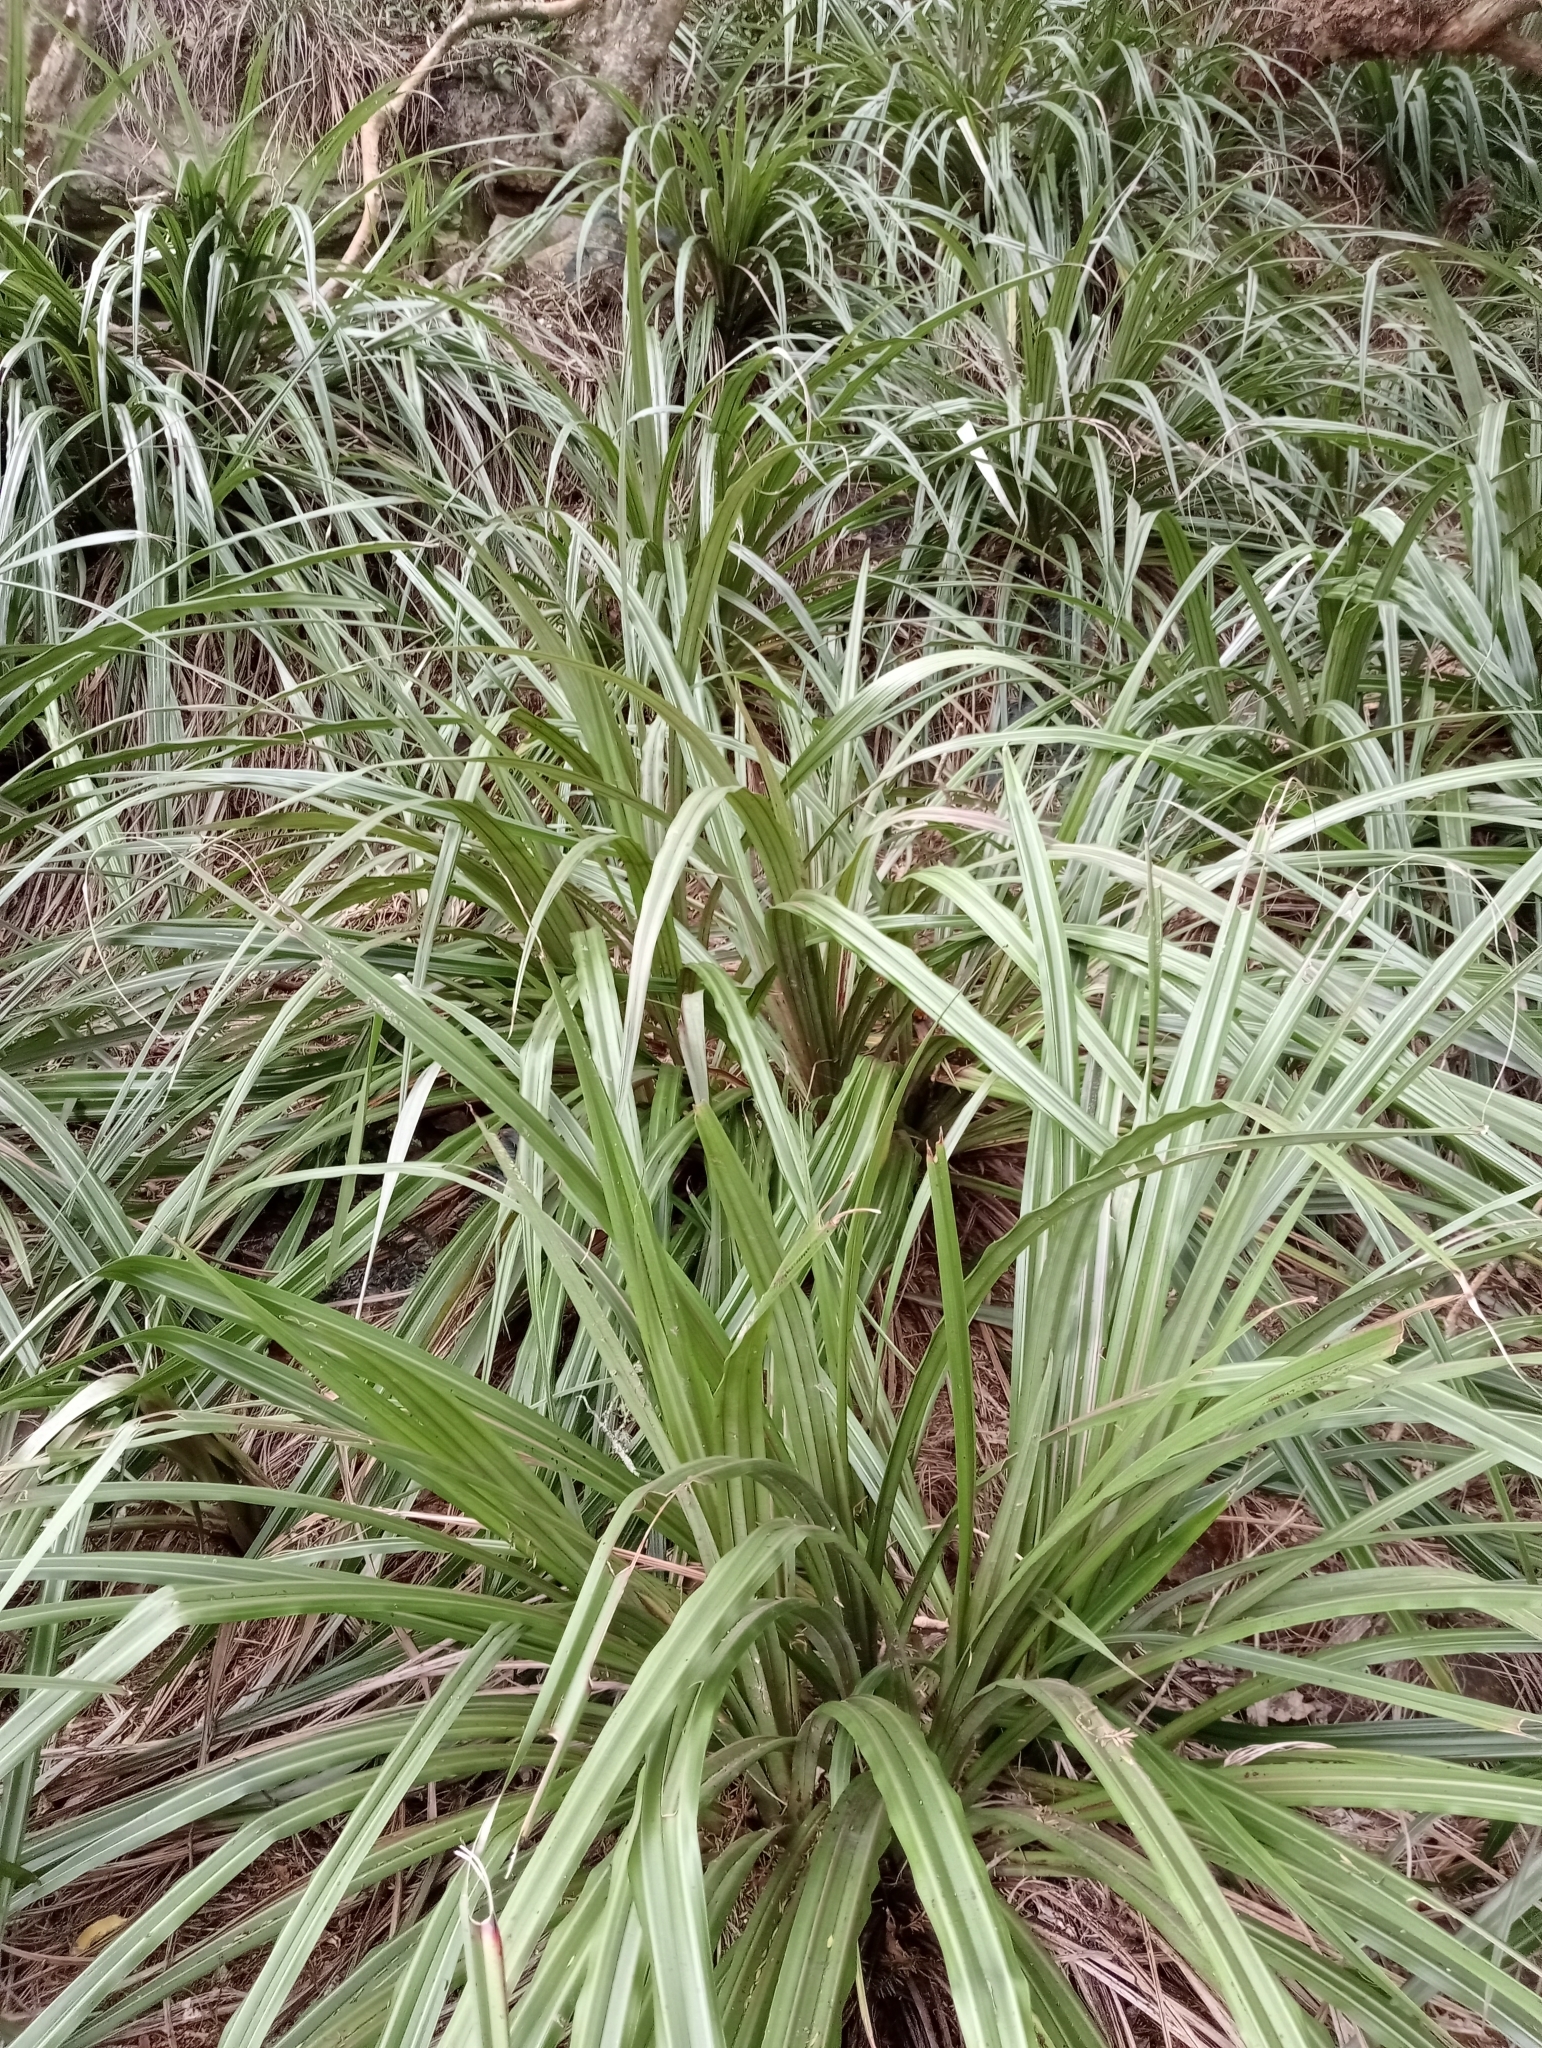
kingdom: Plantae
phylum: Tracheophyta
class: Liliopsida
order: Asparagales
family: Asteliaceae
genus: Astelia
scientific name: Astelia fragrans
